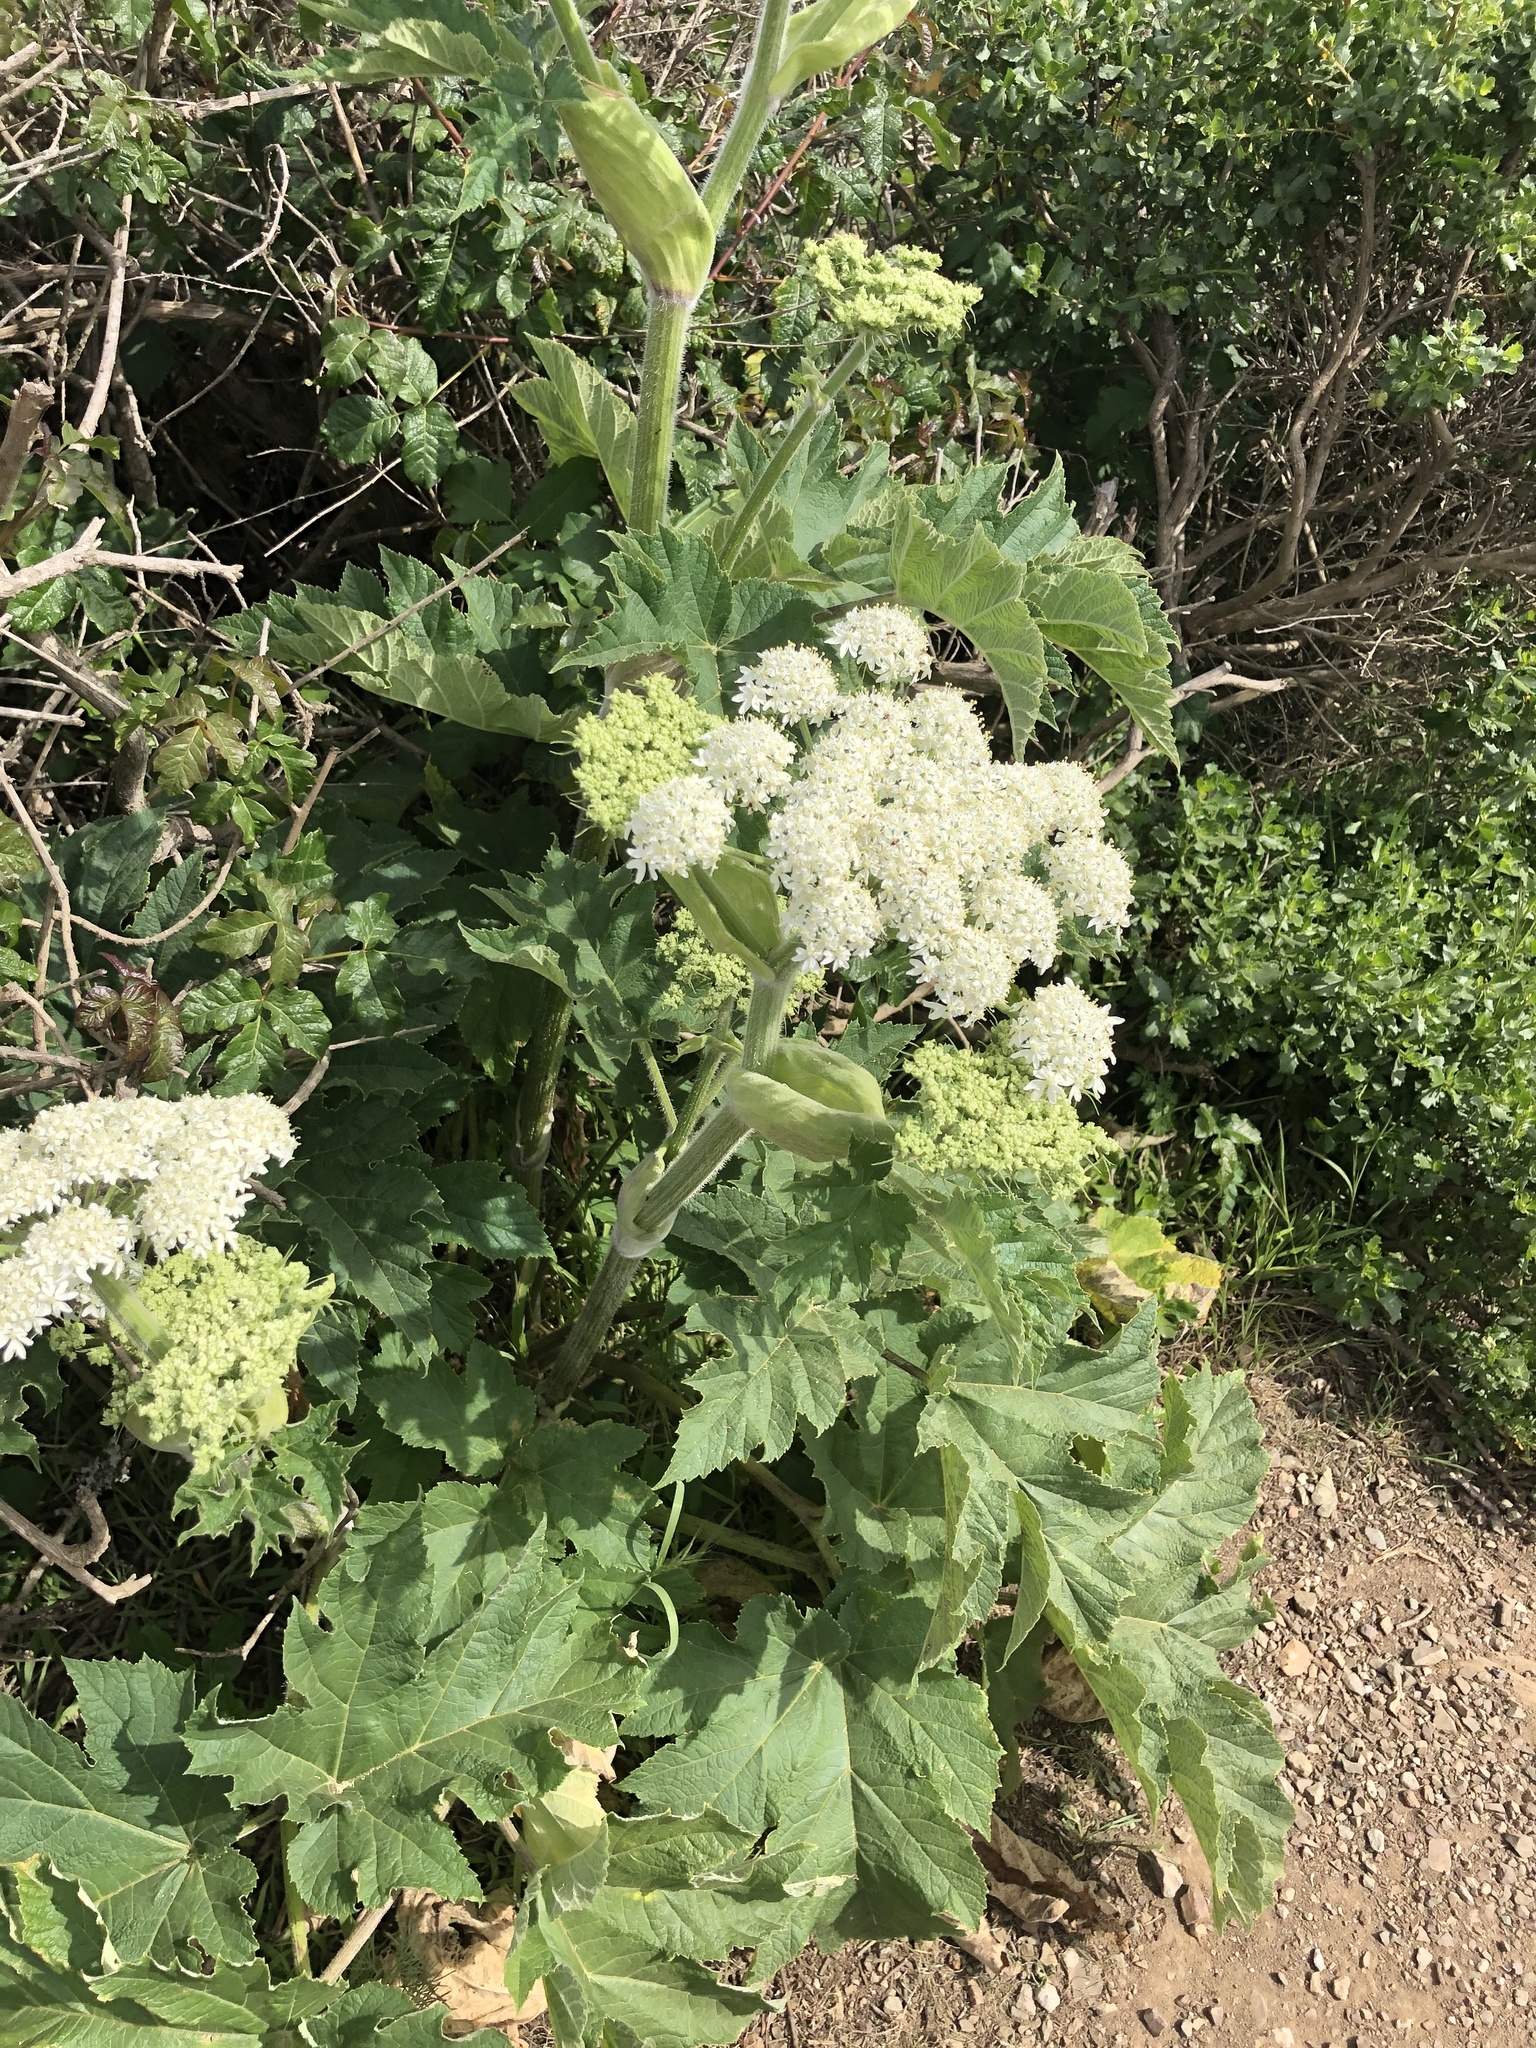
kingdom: Plantae
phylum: Tracheophyta
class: Magnoliopsida
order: Apiales
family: Apiaceae
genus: Heracleum
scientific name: Heracleum maximum
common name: American cow parsnip
